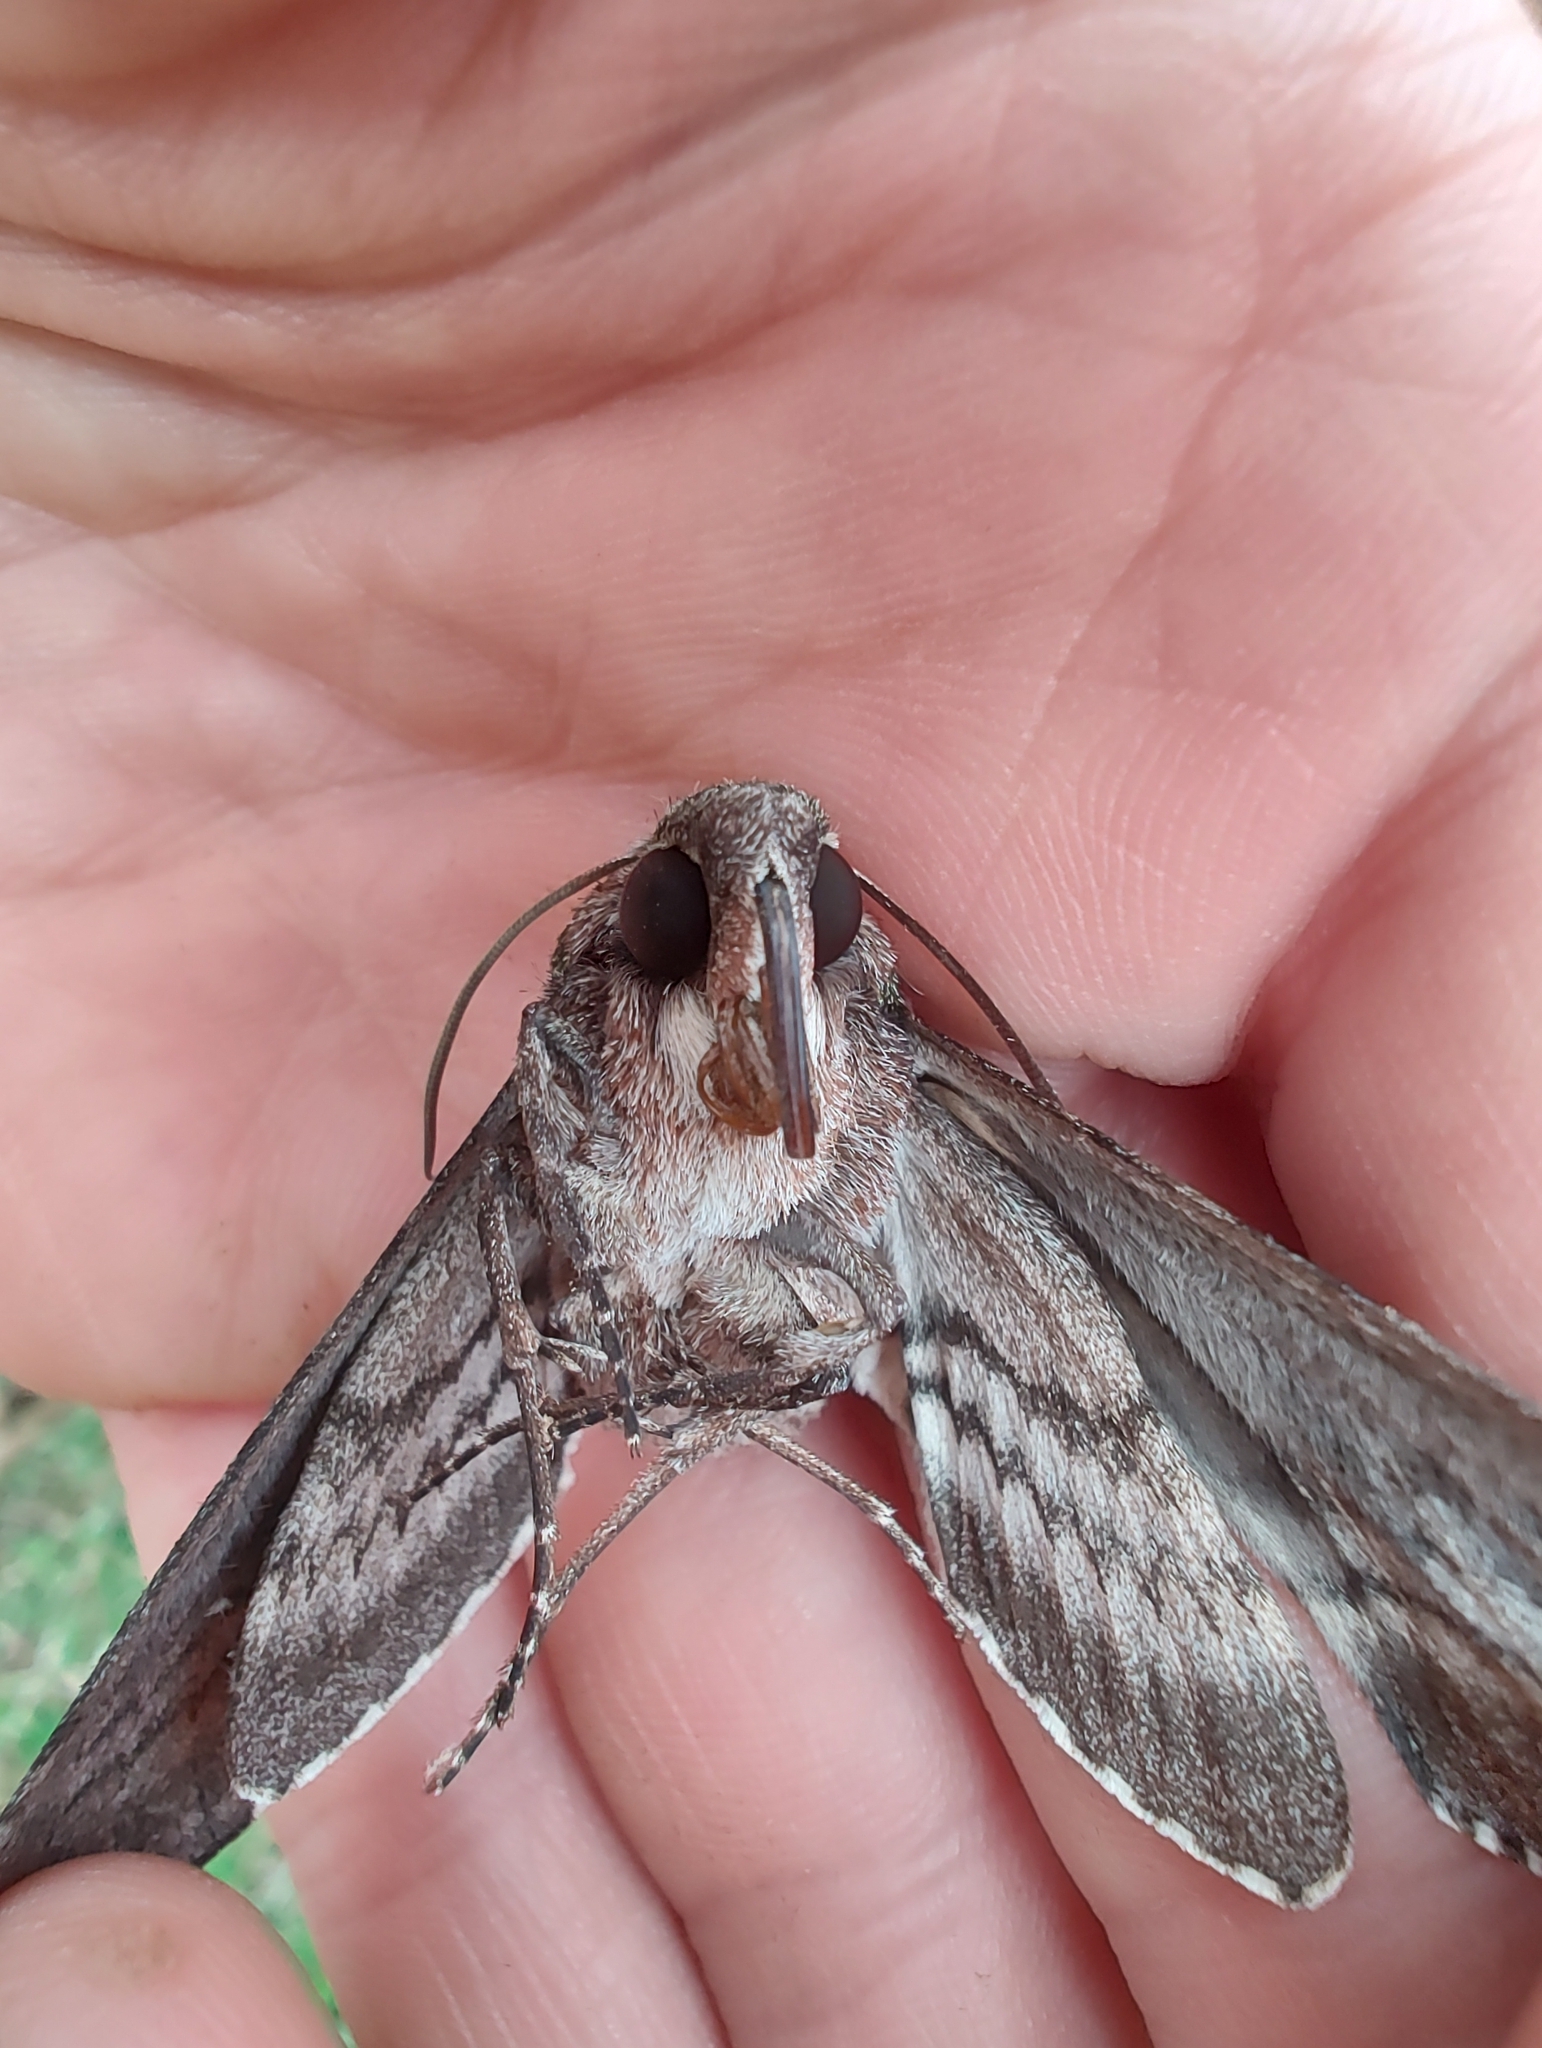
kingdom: Animalia
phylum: Arthropoda
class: Insecta
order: Lepidoptera
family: Sphingidae
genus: Manduca
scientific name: Manduca afflicta
